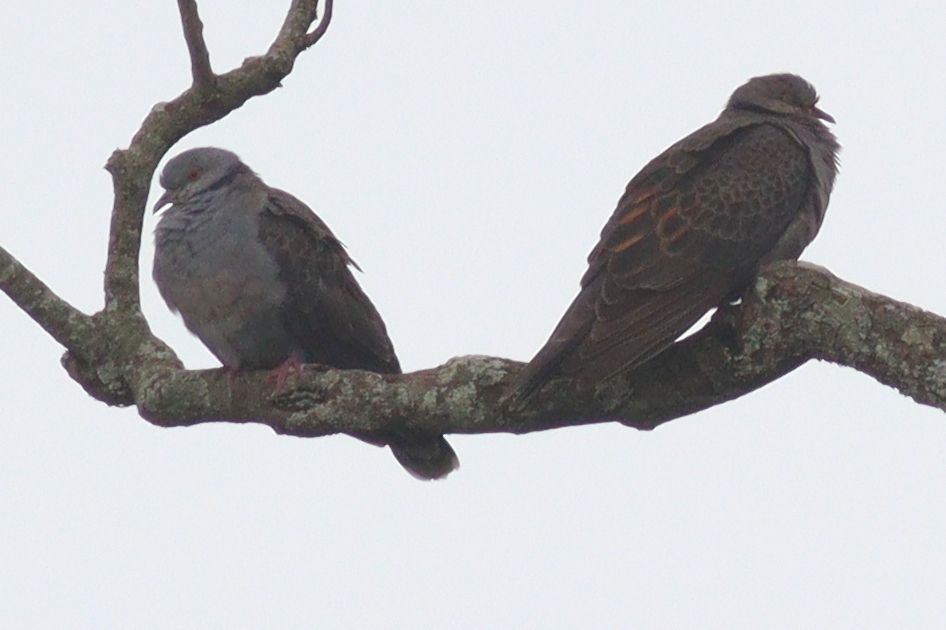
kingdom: Animalia
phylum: Chordata
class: Aves
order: Columbiformes
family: Columbidae
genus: Streptopelia
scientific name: Streptopelia lugens
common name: Dusky turtle dove
